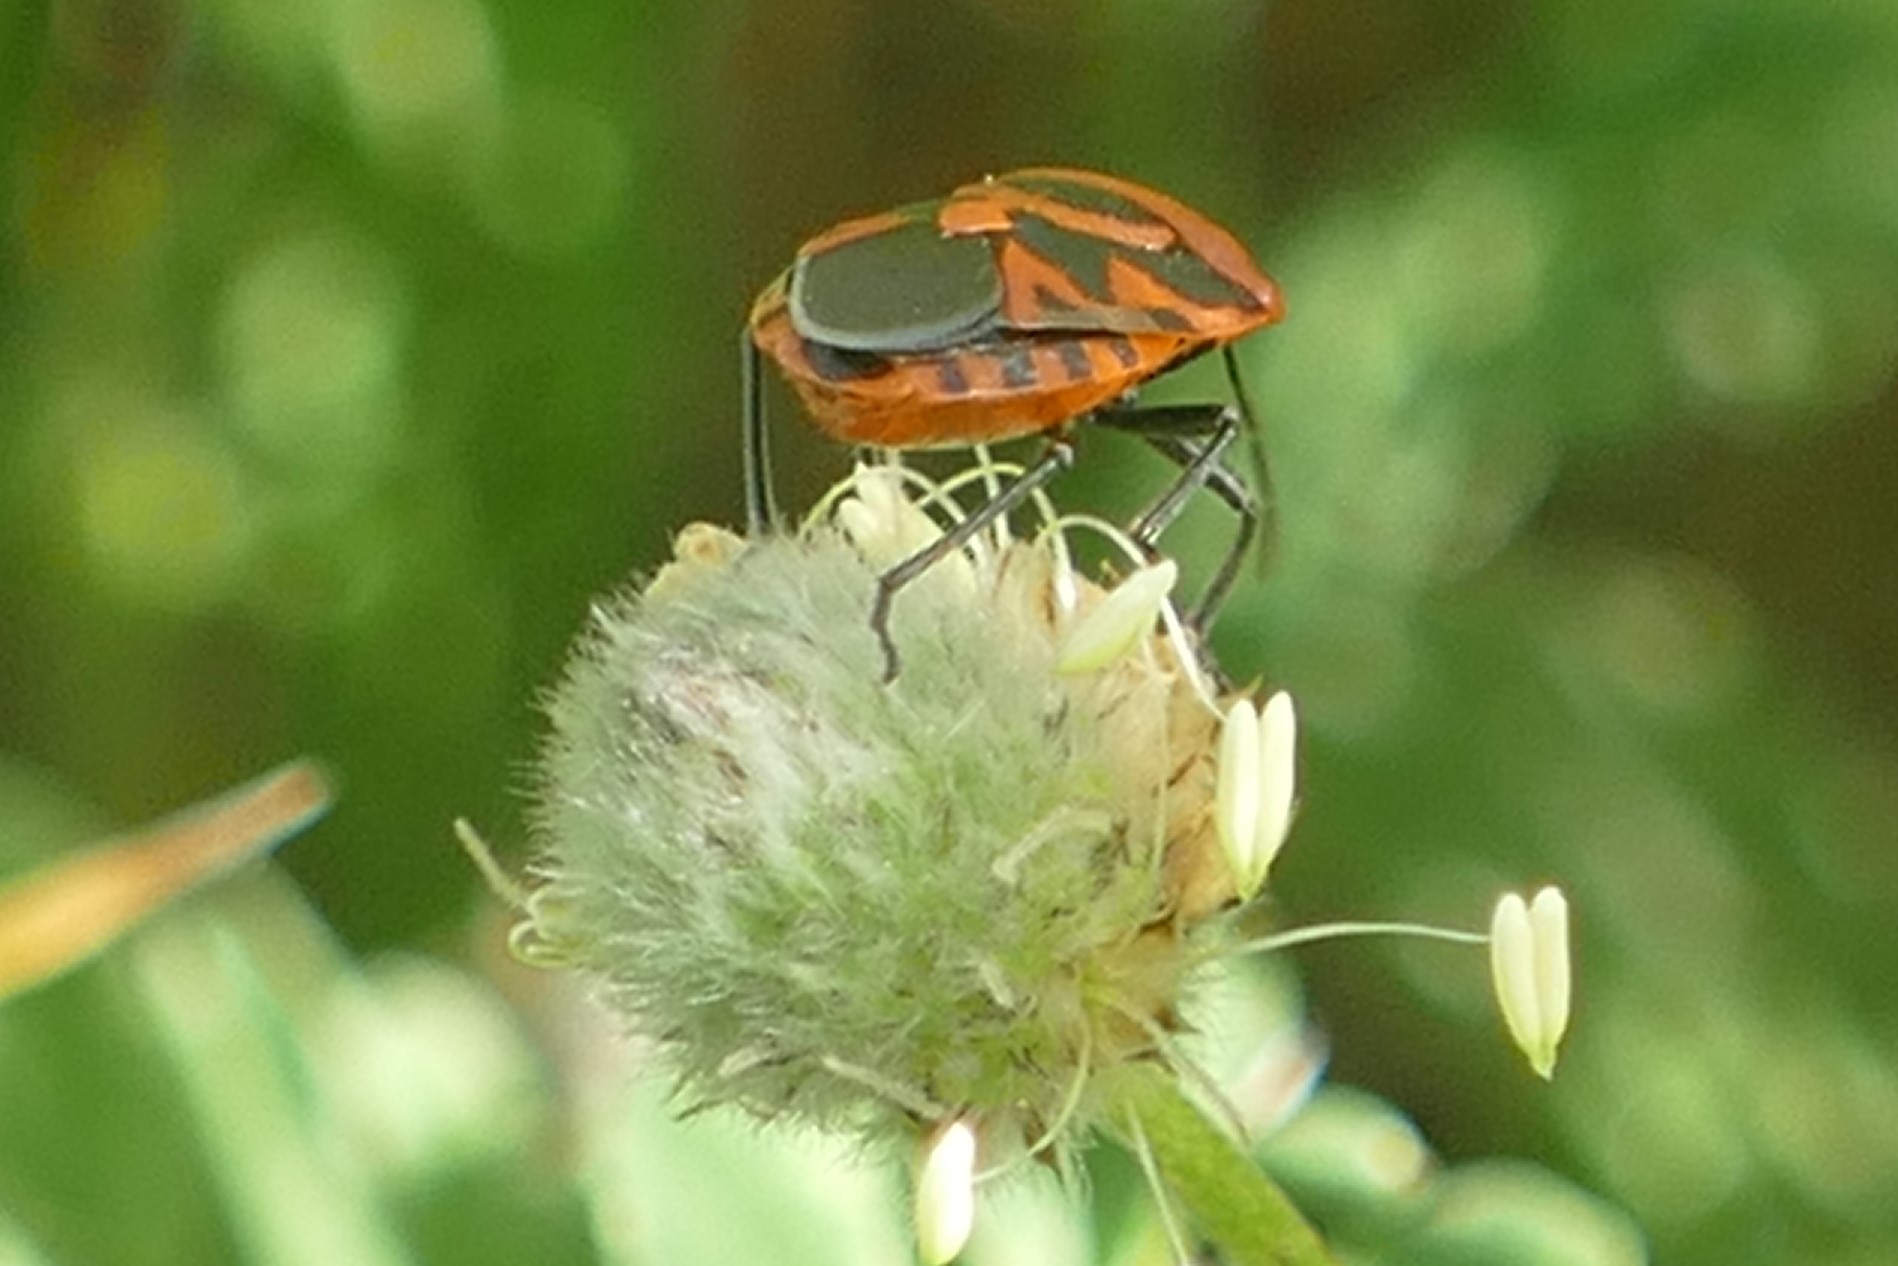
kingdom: Animalia
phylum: Arthropoda
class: Insecta
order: Hemiptera
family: Pentatomidae
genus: Eurydema
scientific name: Eurydema ornata
